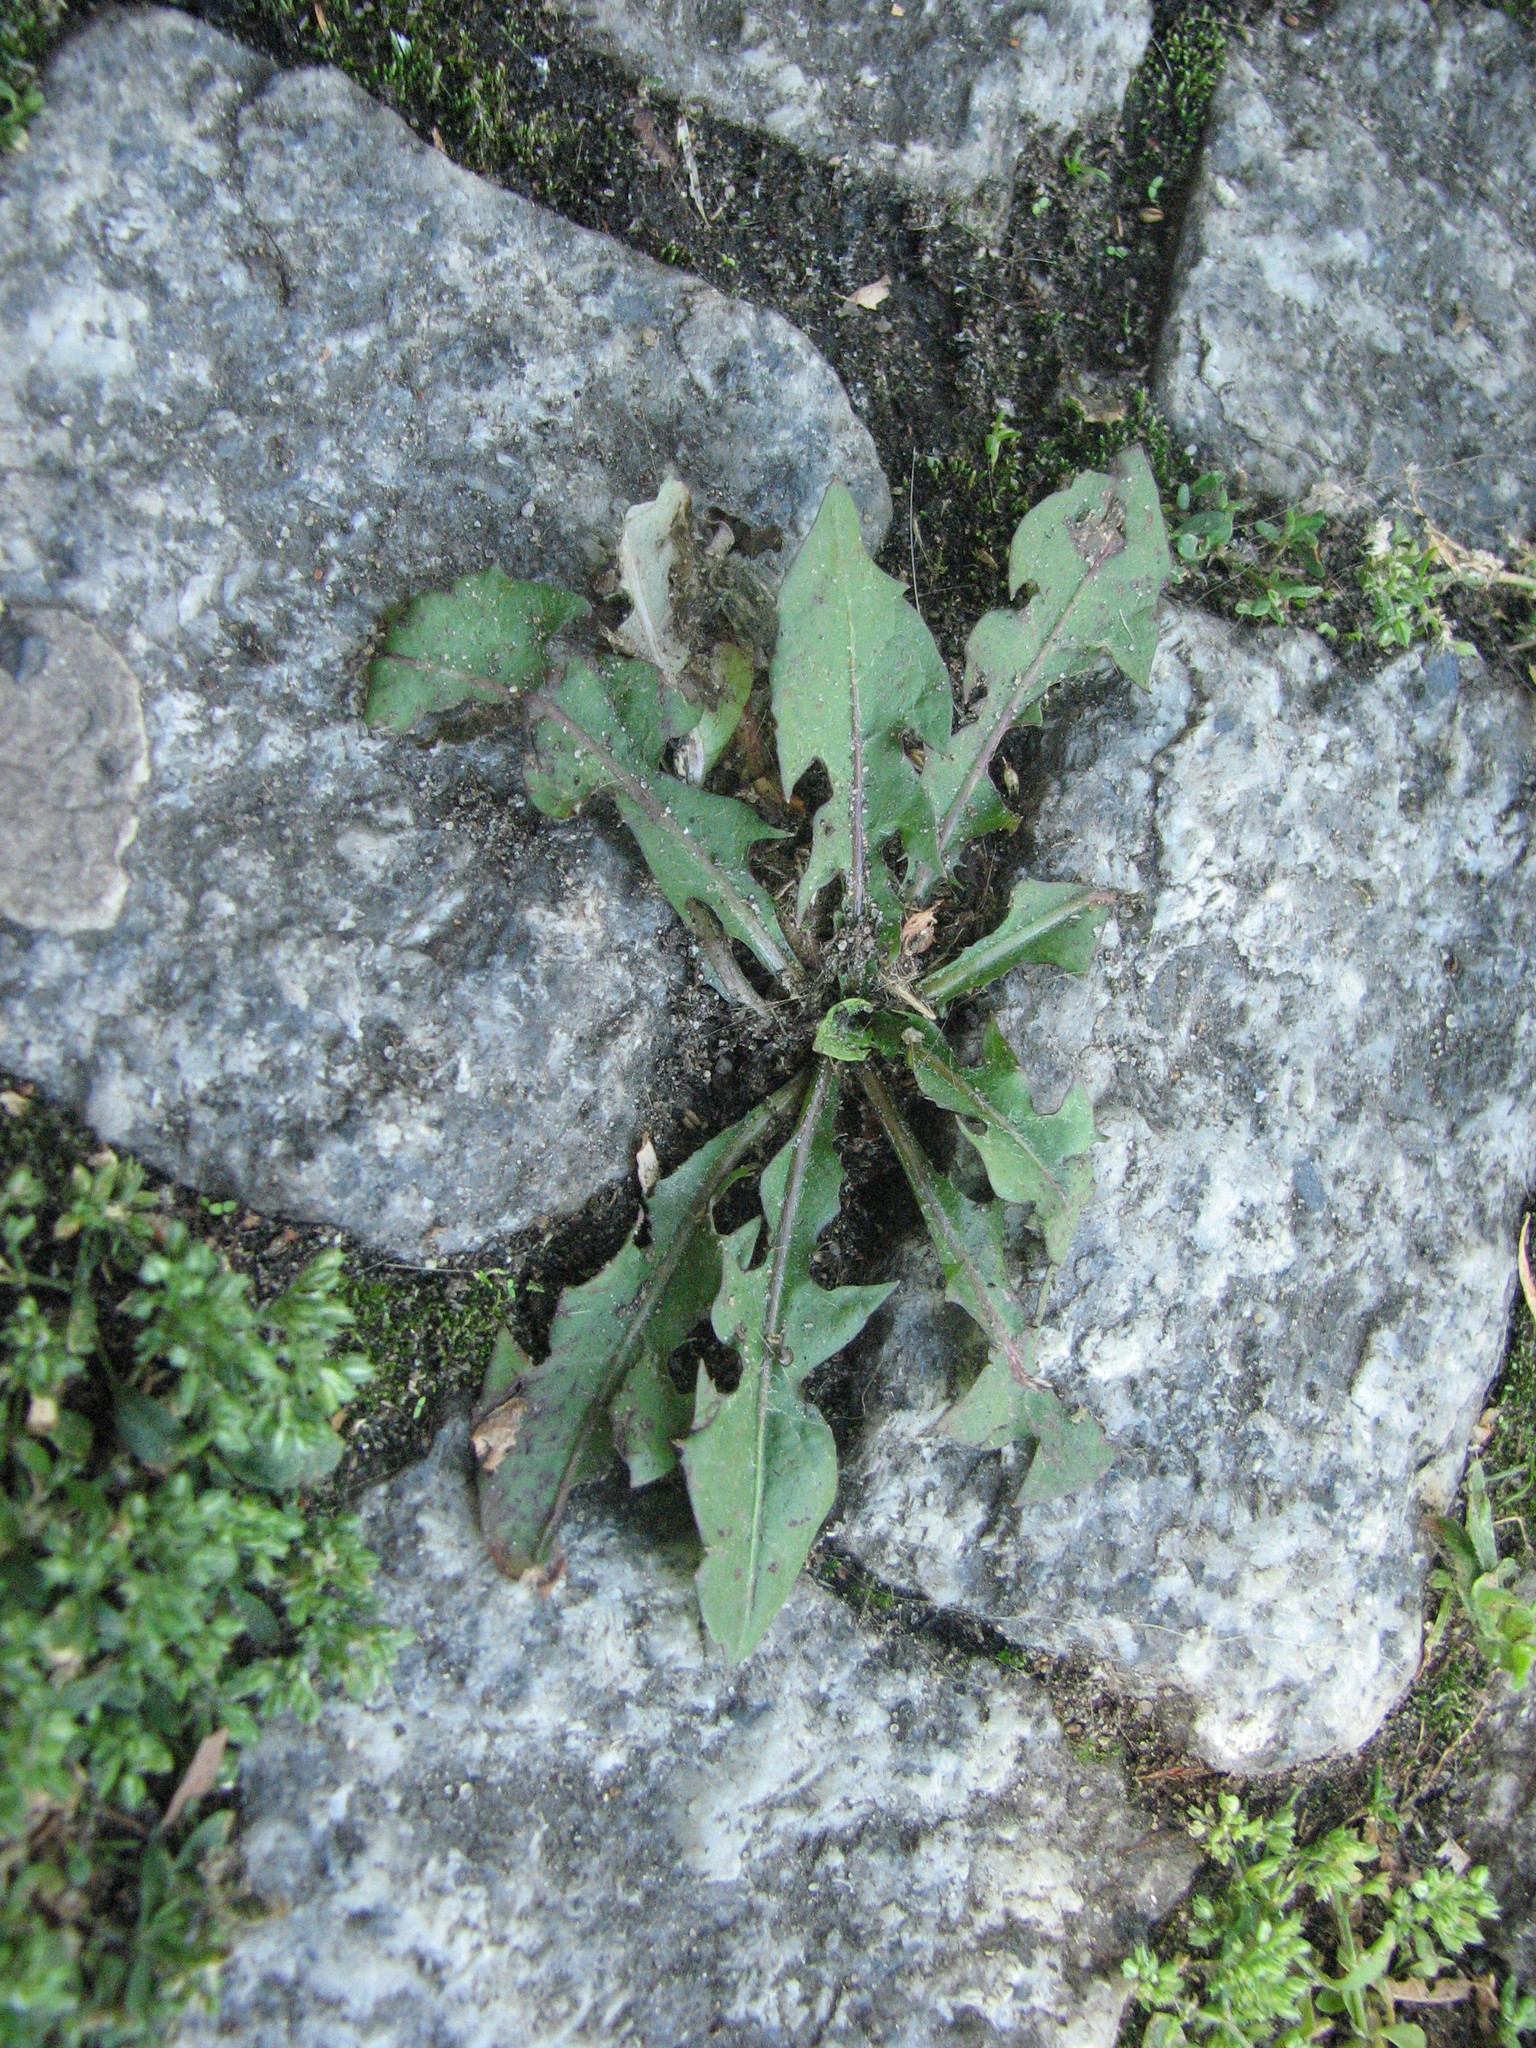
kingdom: Plantae
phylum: Tracheophyta
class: Magnoliopsida
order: Asterales
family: Asteraceae
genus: Taraxacum
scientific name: Taraxacum officinale
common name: Common dandelion
